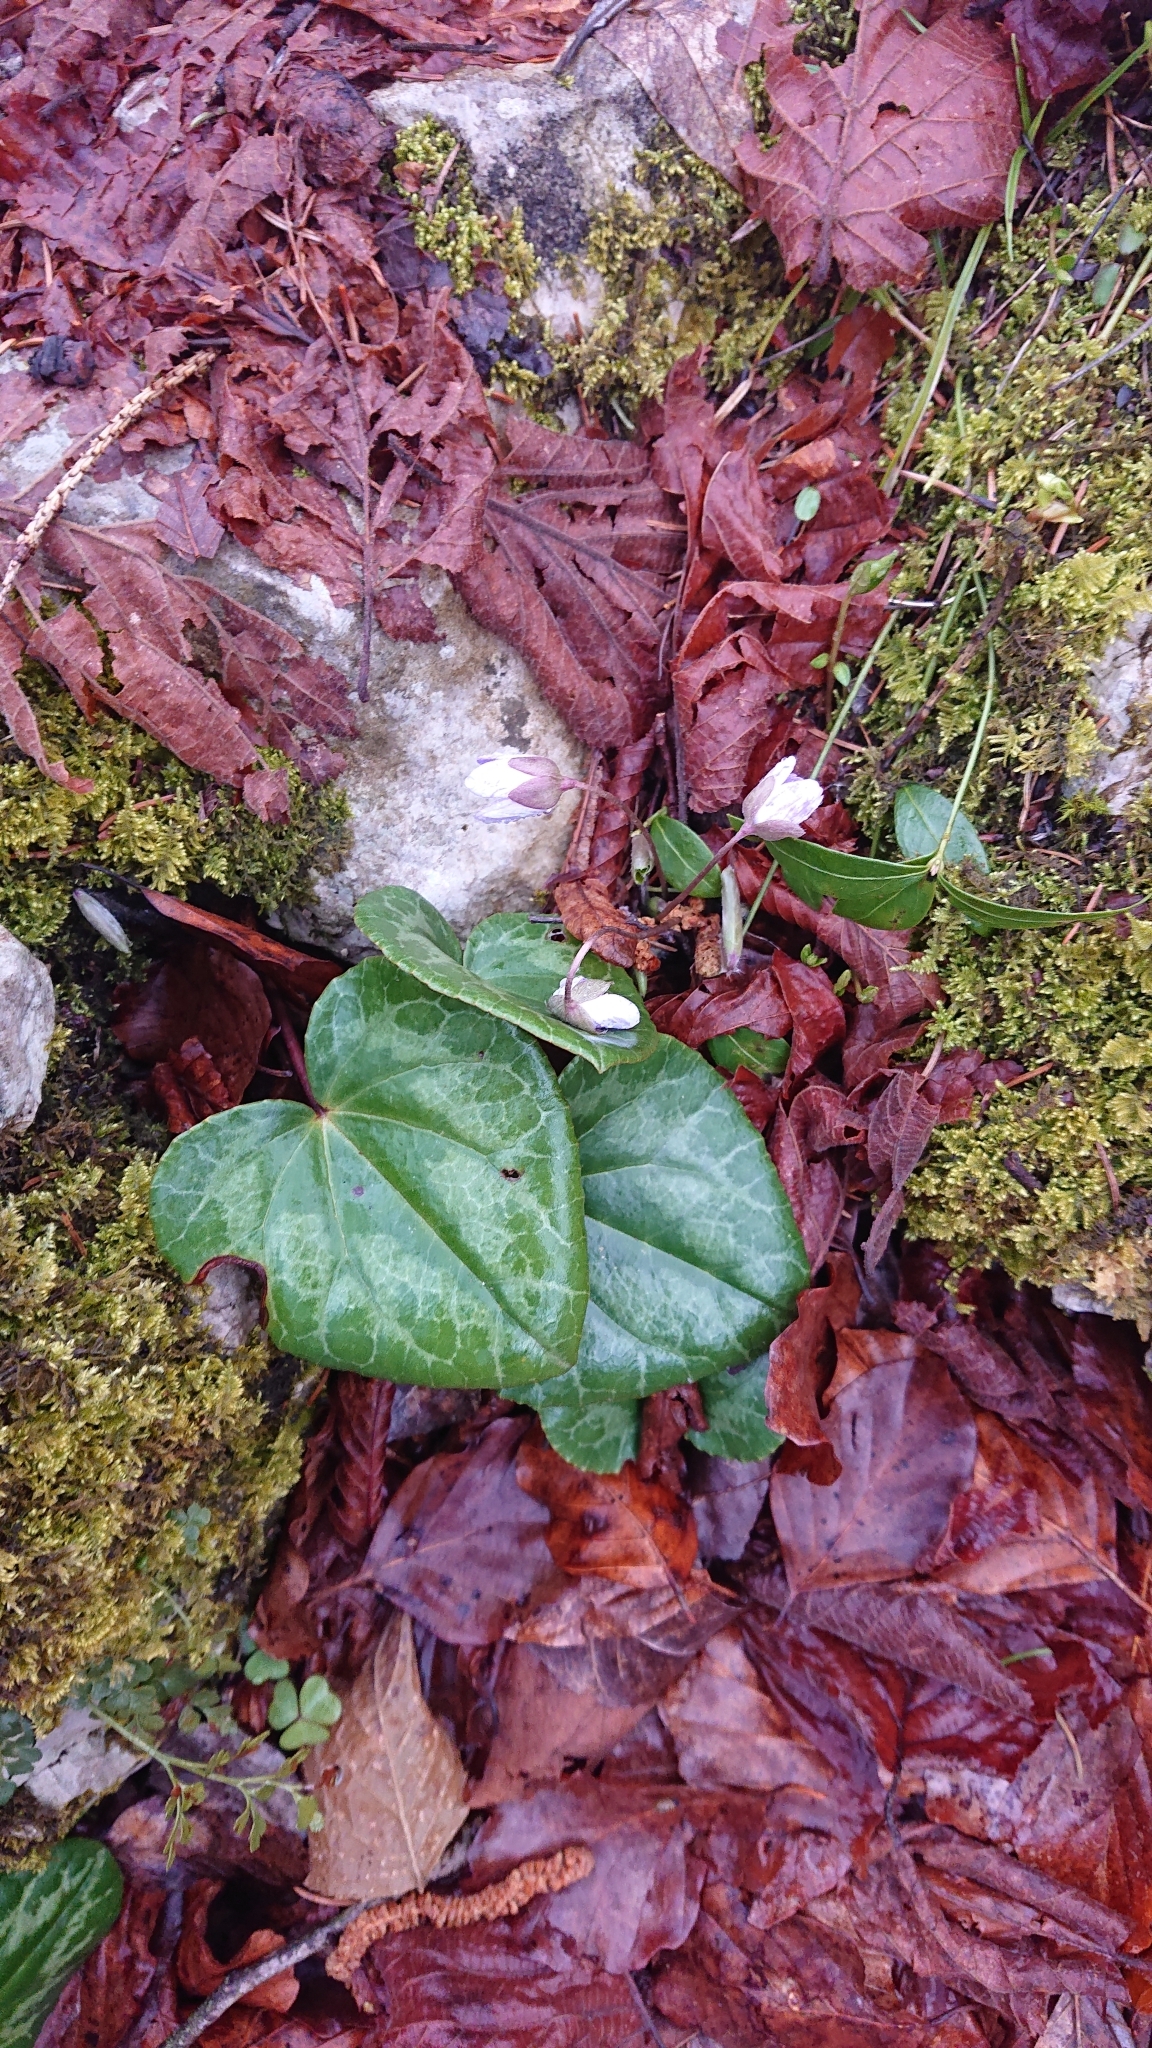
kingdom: Plantae
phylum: Tracheophyta
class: Magnoliopsida
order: Ericales
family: Primulaceae
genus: Cyclamen
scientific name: Cyclamen purpurascens
